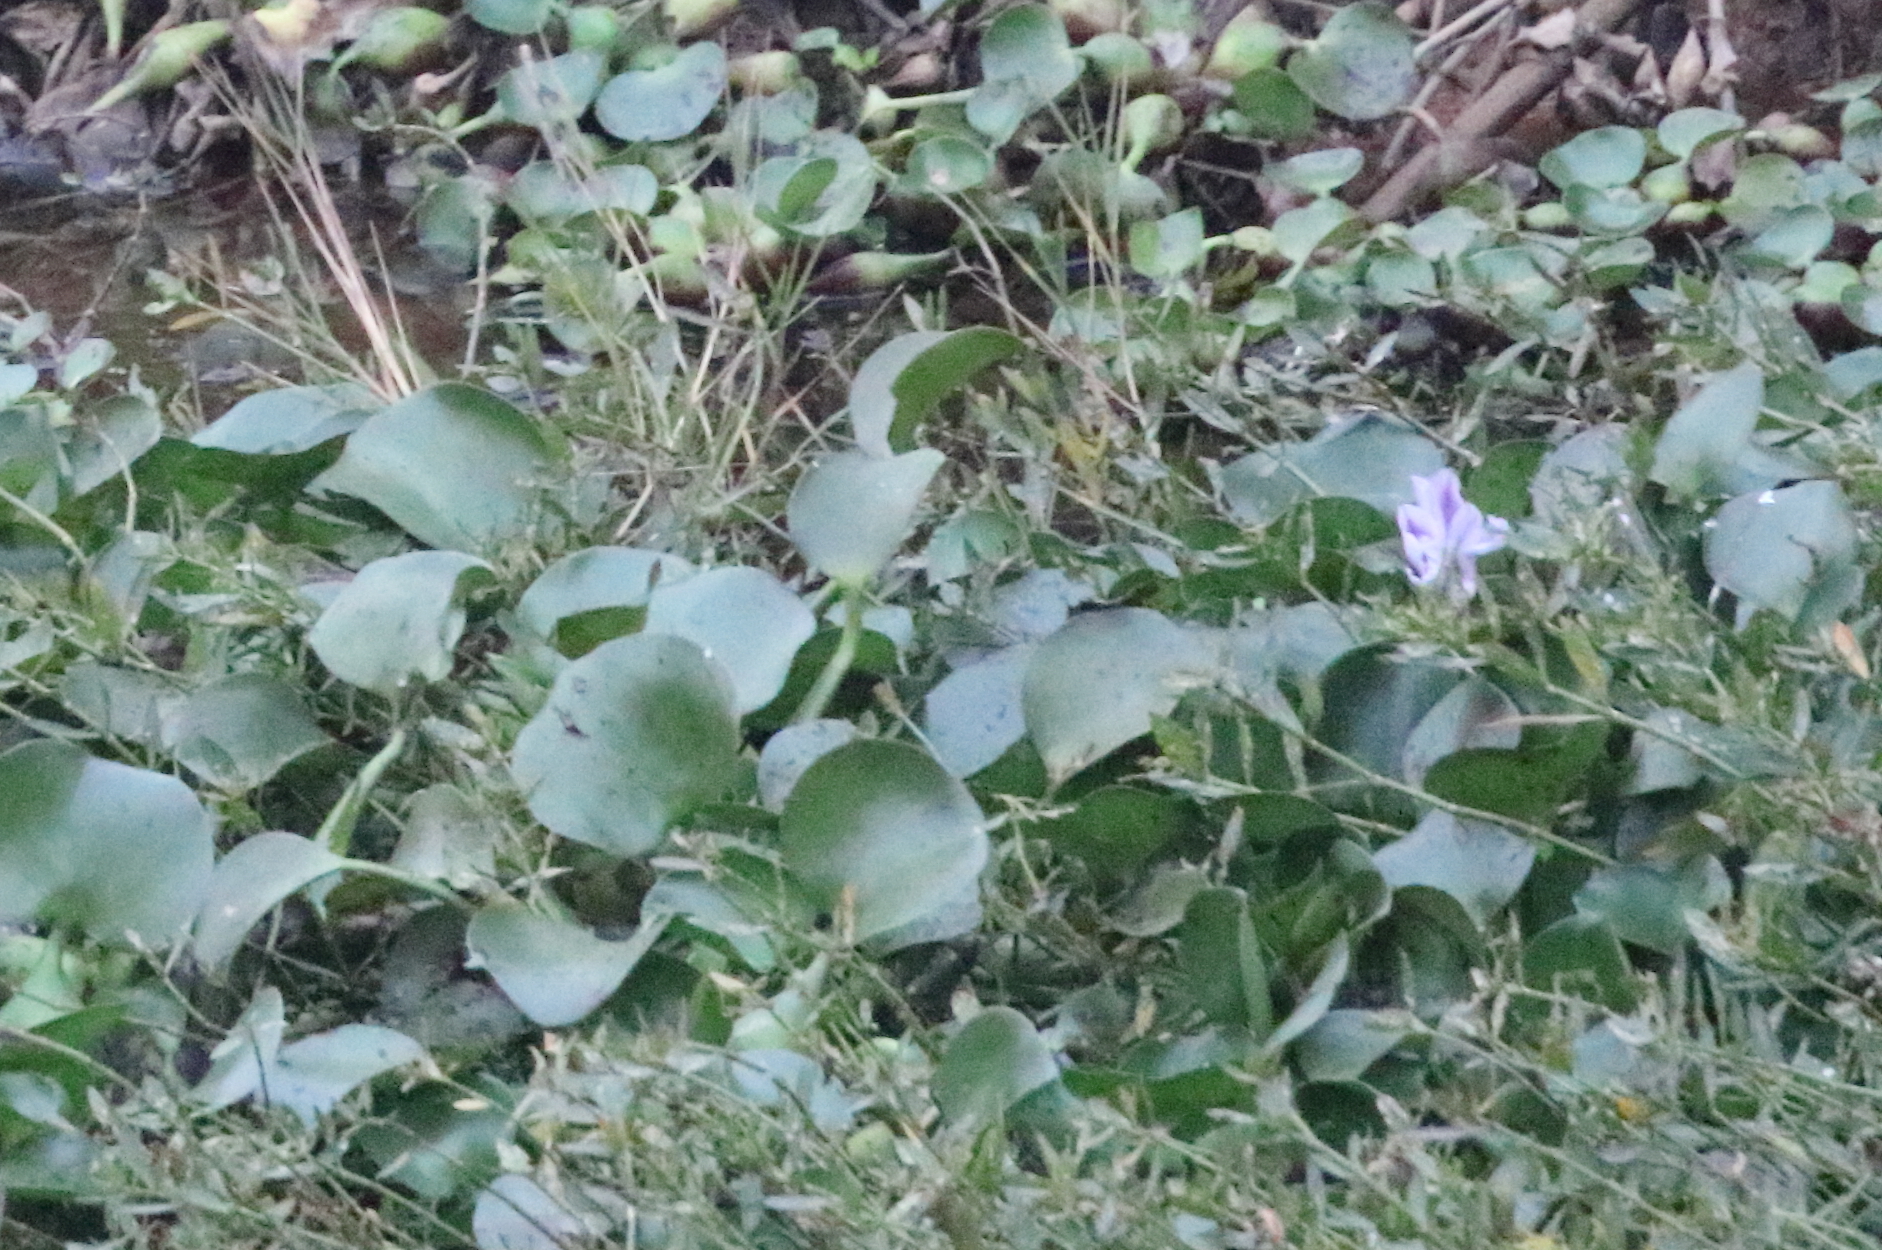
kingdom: Plantae
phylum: Tracheophyta
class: Liliopsida
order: Commelinales
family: Pontederiaceae
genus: Pontederia
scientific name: Pontederia crassipes
